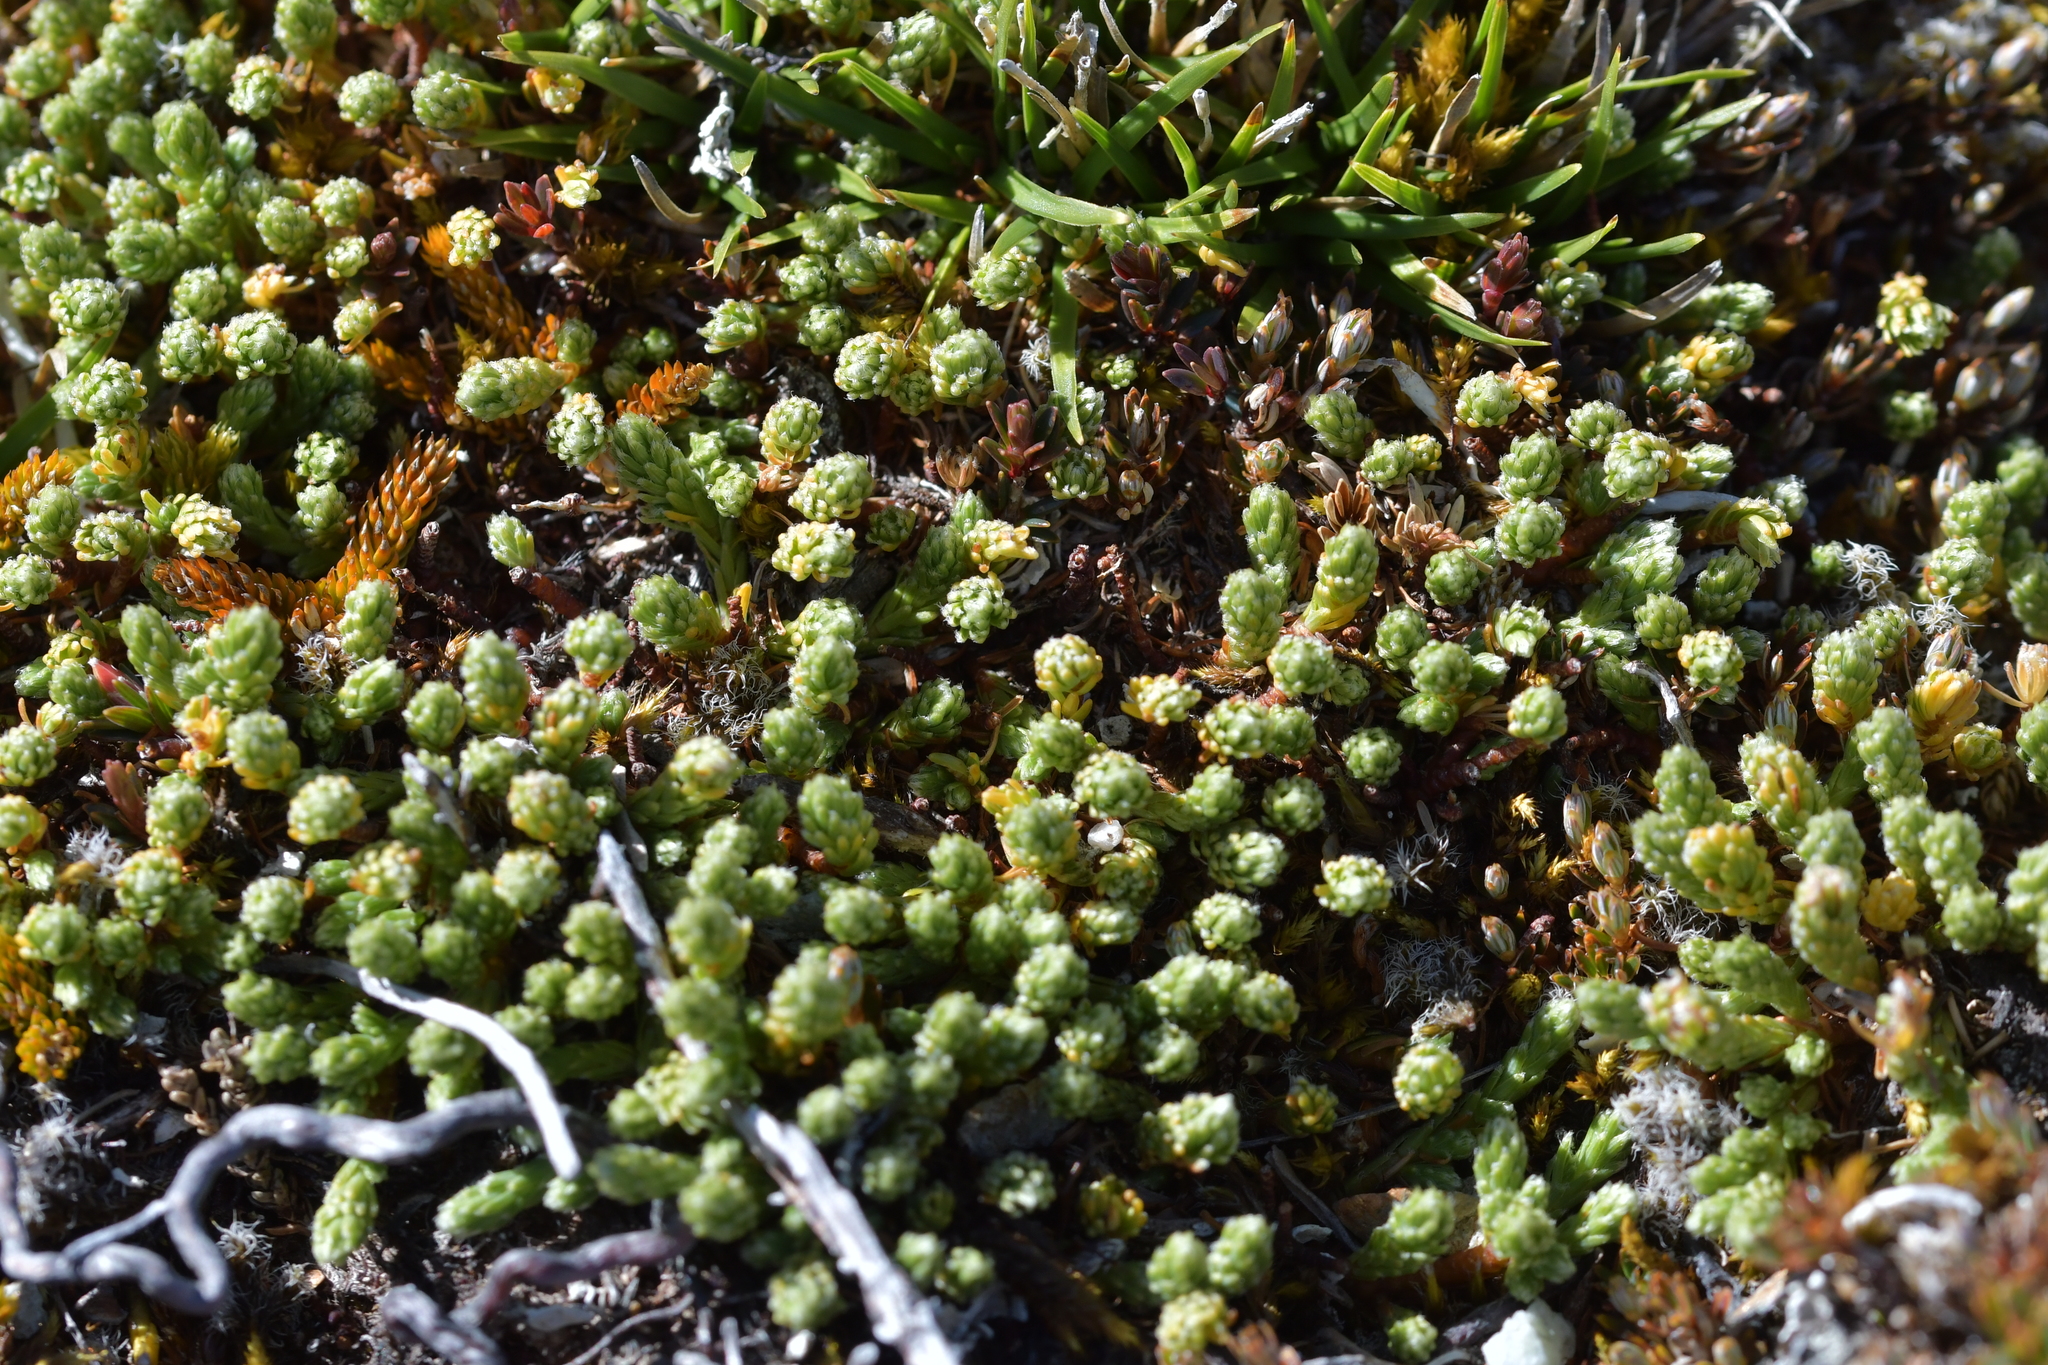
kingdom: Plantae
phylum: Tracheophyta
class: Magnoliopsida
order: Malvales
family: Thymelaeaceae
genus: Kelleria
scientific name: Kelleria dieffenbachii
